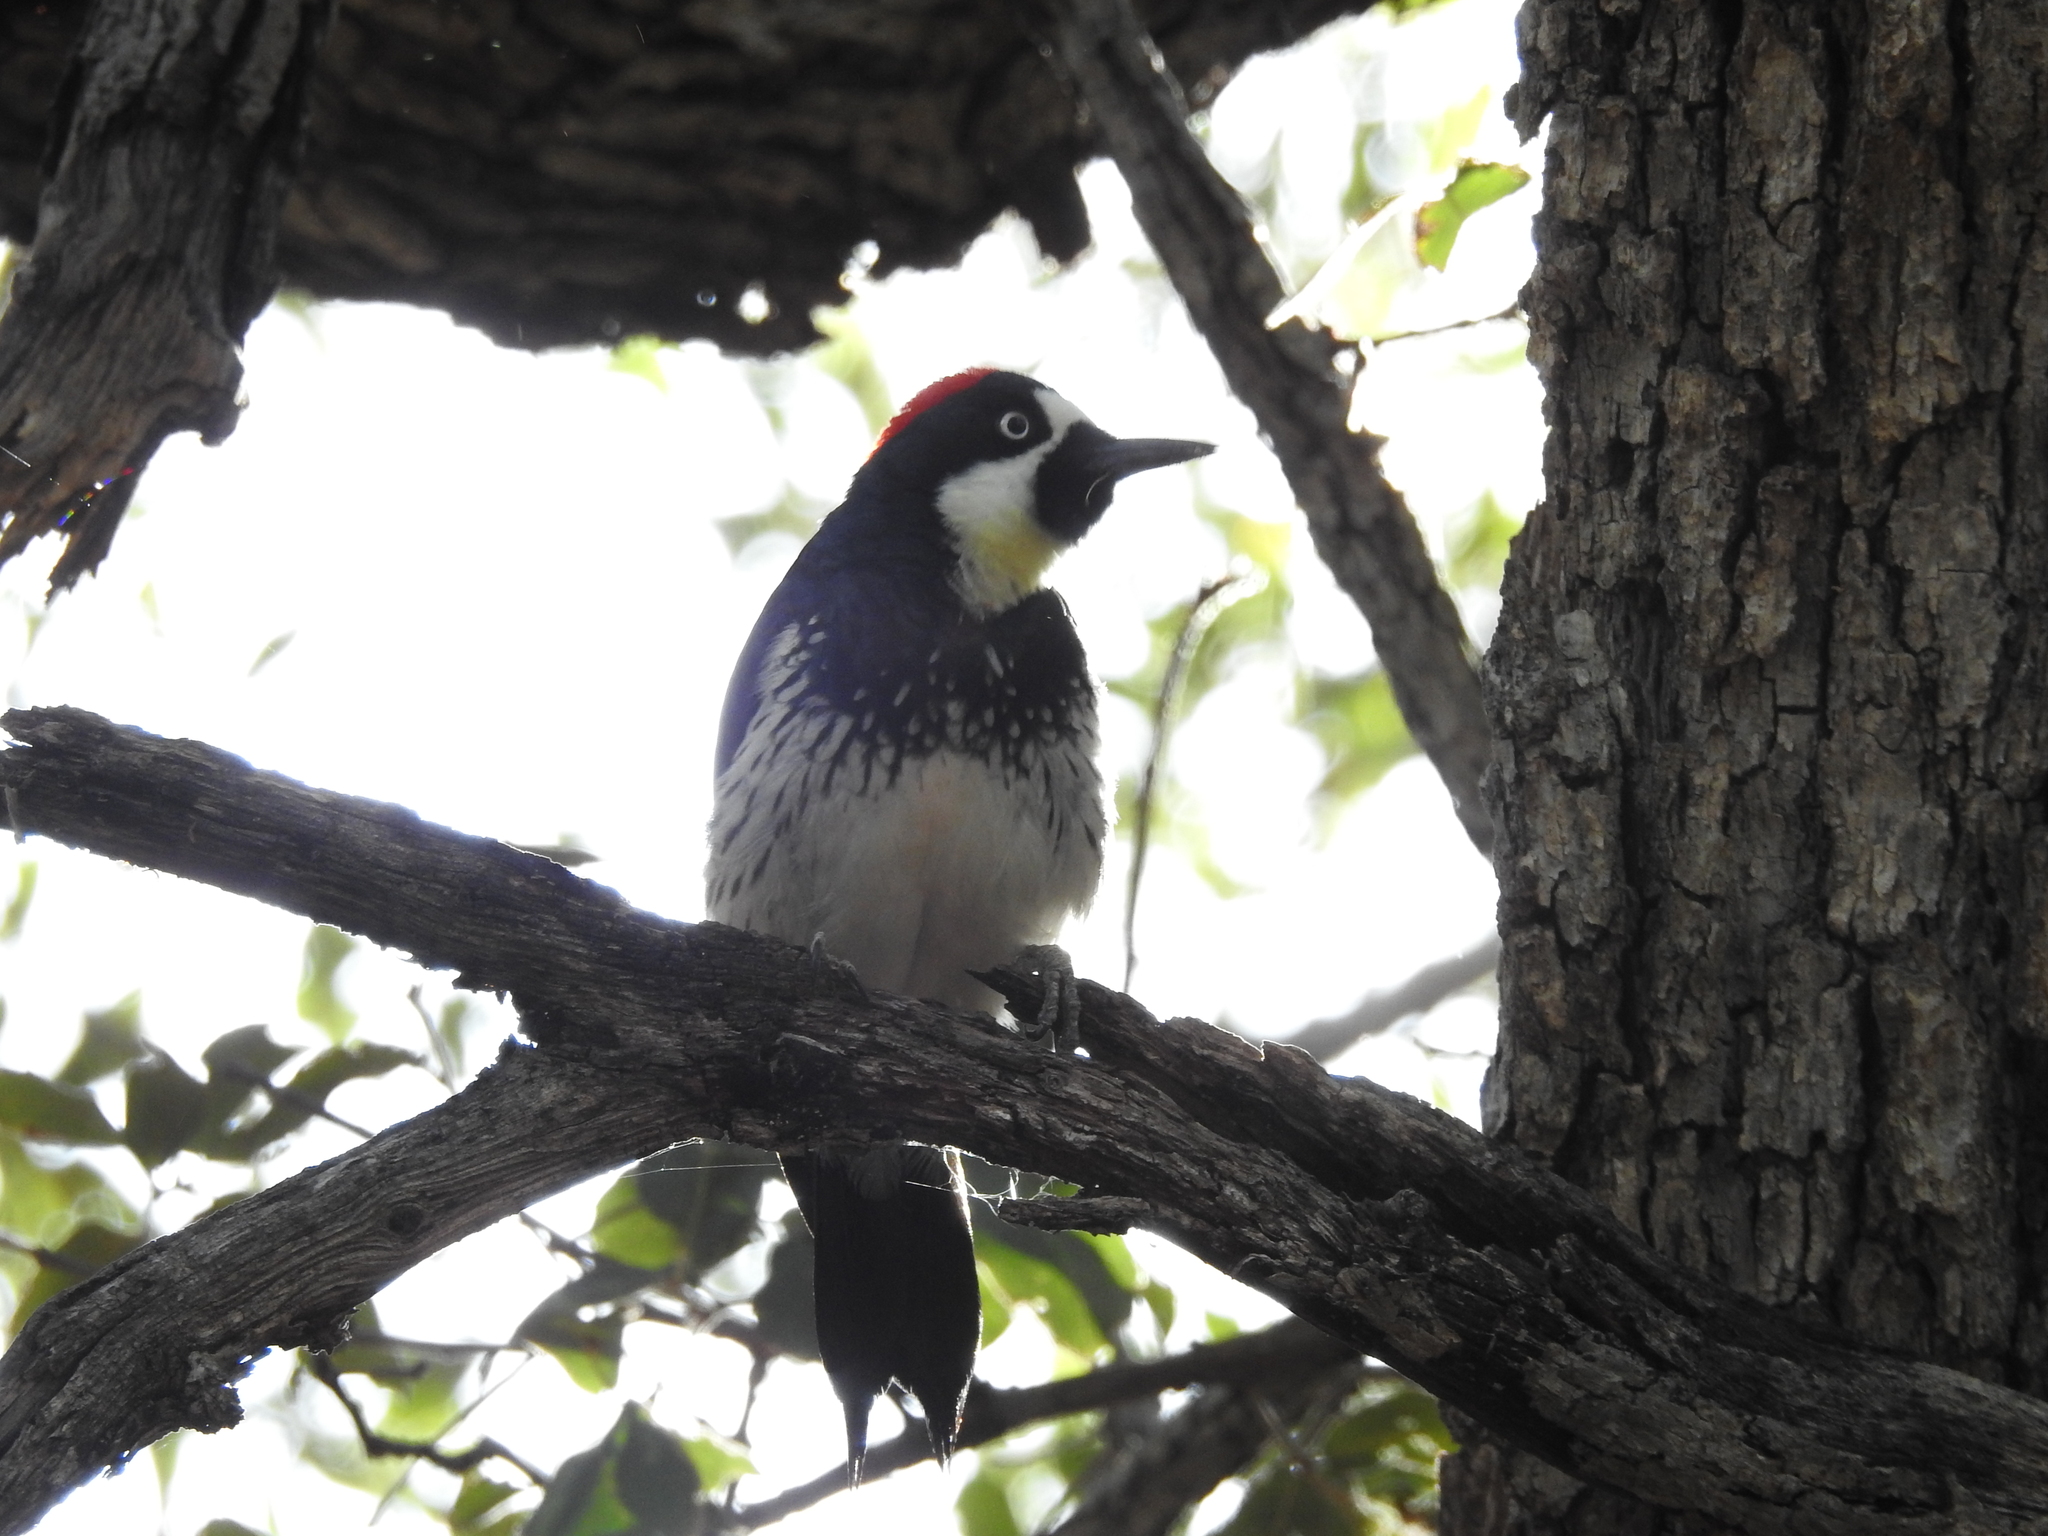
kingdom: Animalia
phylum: Chordata
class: Aves
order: Piciformes
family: Picidae
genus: Melanerpes
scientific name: Melanerpes formicivorus
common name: Acorn woodpecker
